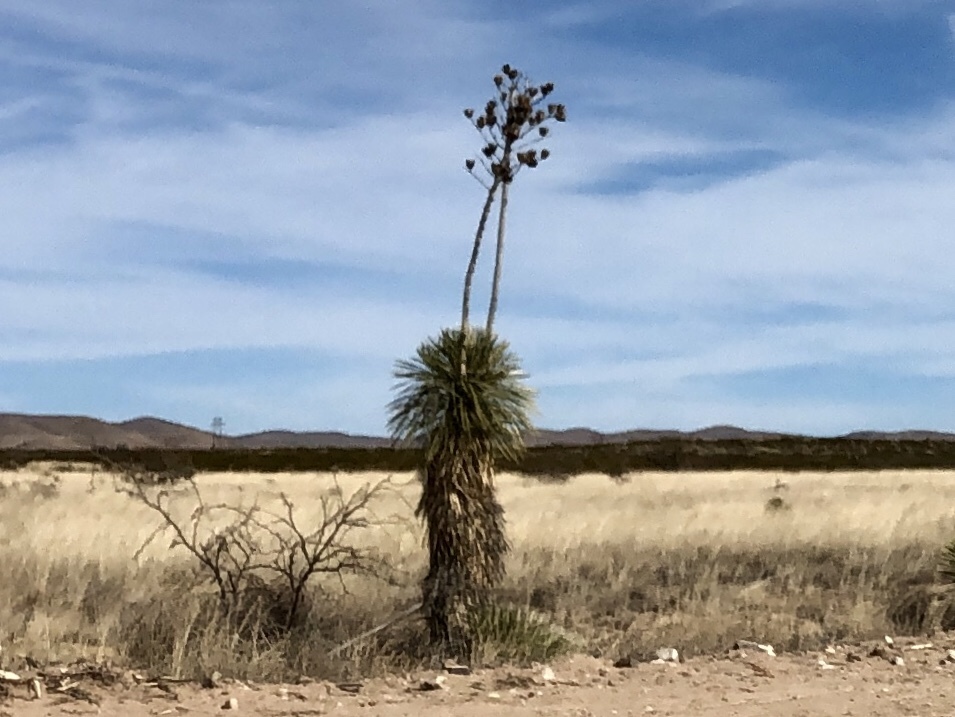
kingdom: Plantae
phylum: Tracheophyta
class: Liliopsida
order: Asparagales
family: Asparagaceae
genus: Yucca
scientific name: Yucca elata
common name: Palmella
